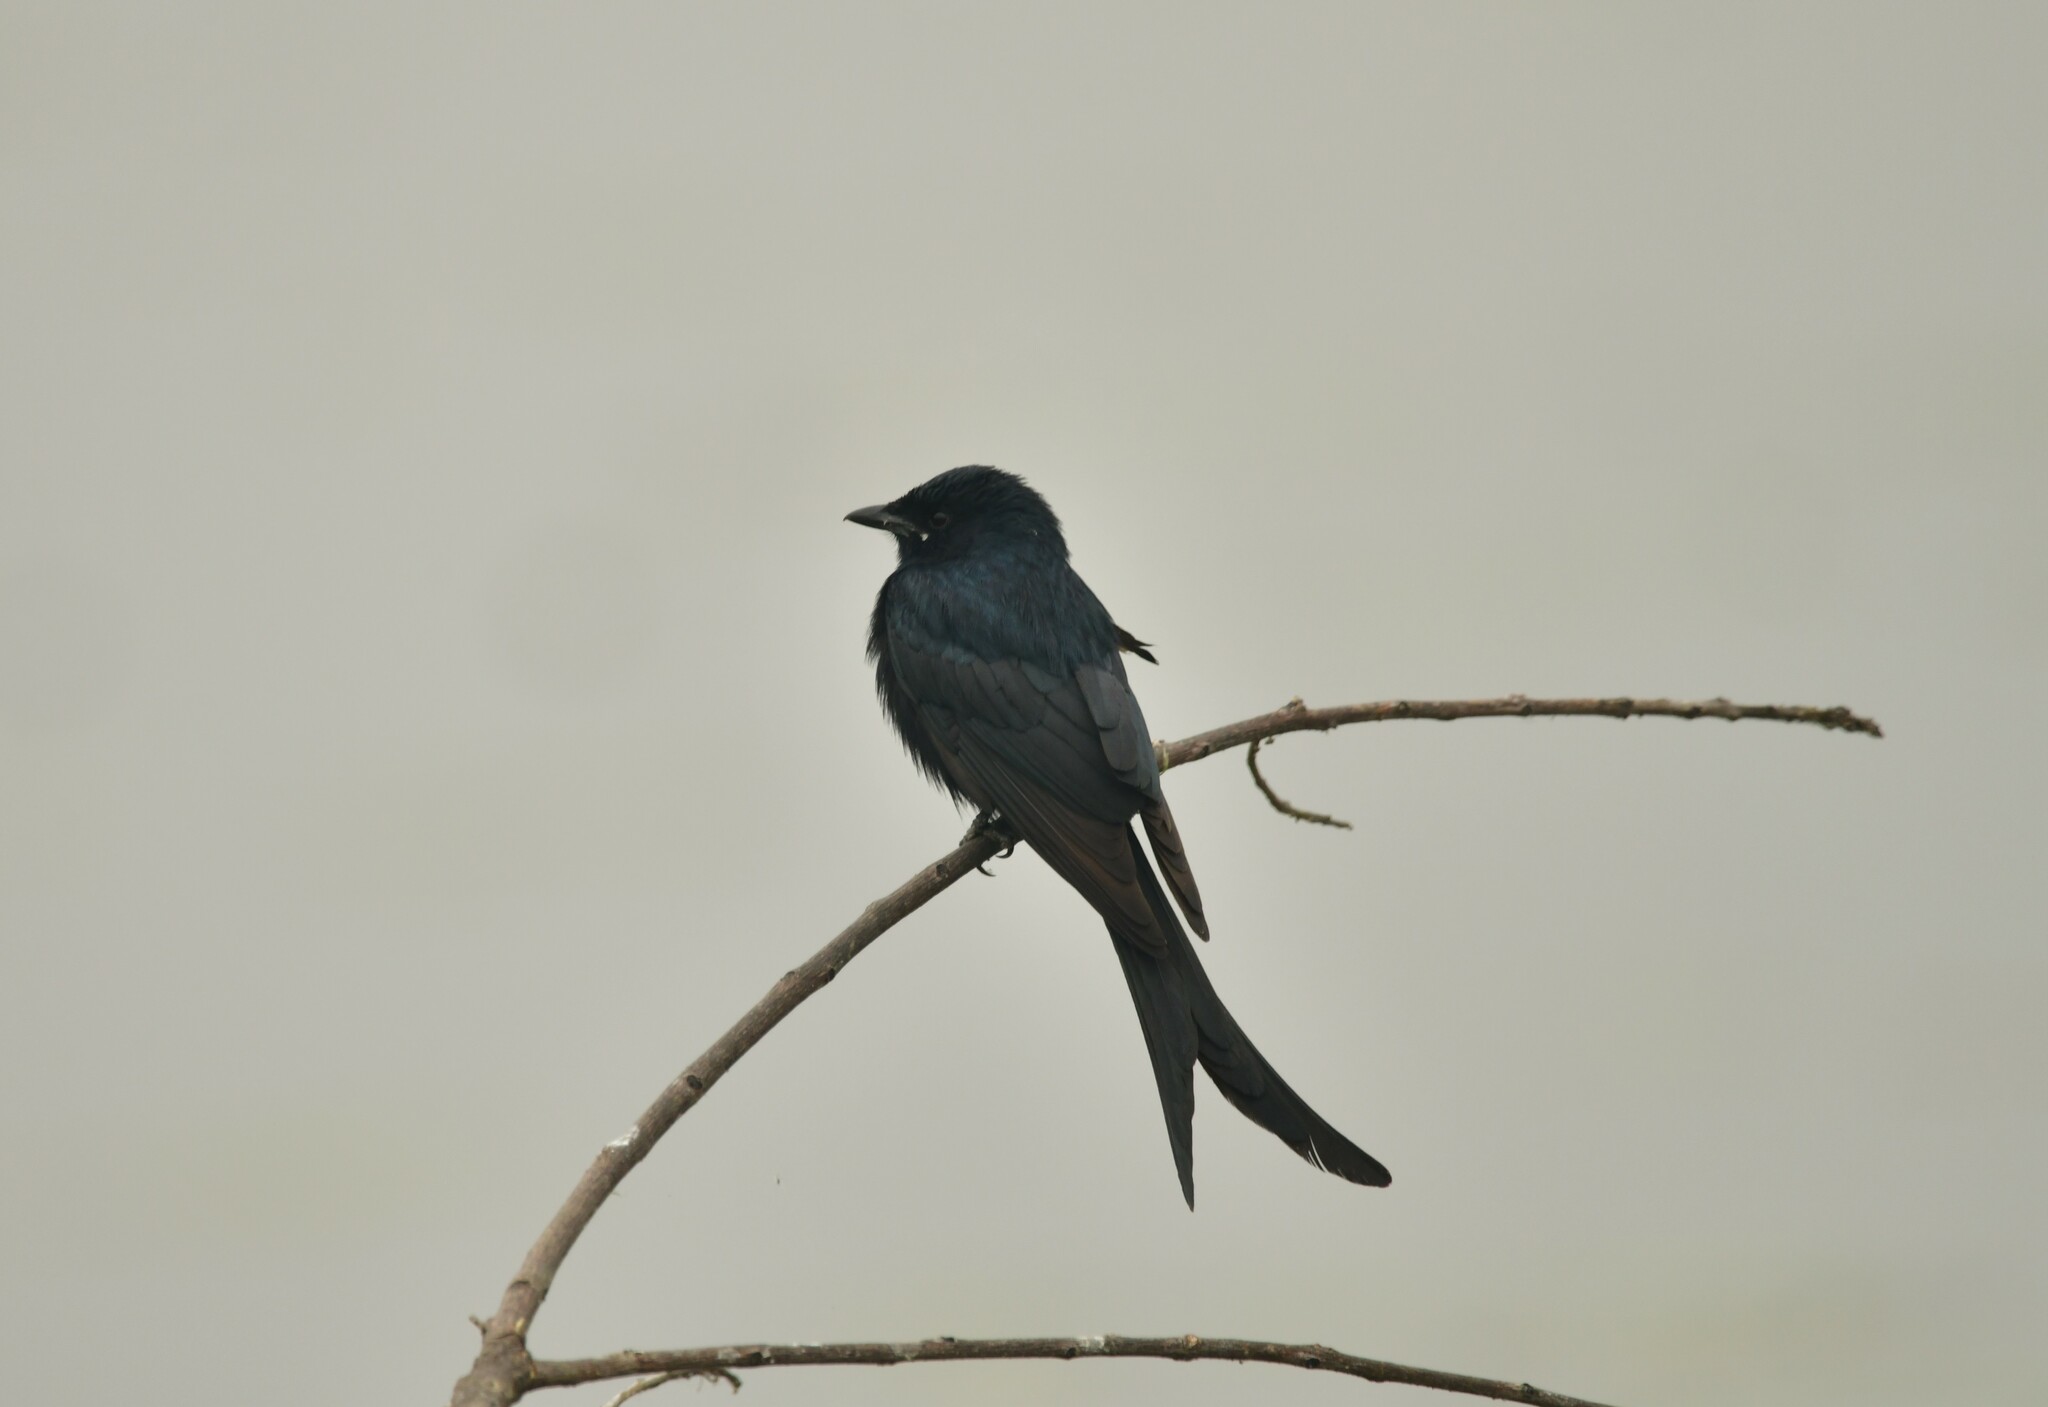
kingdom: Animalia
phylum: Chordata
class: Aves
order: Passeriformes
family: Dicruridae
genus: Dicrurus
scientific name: Dicrurus macrocercus
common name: Black drongo
